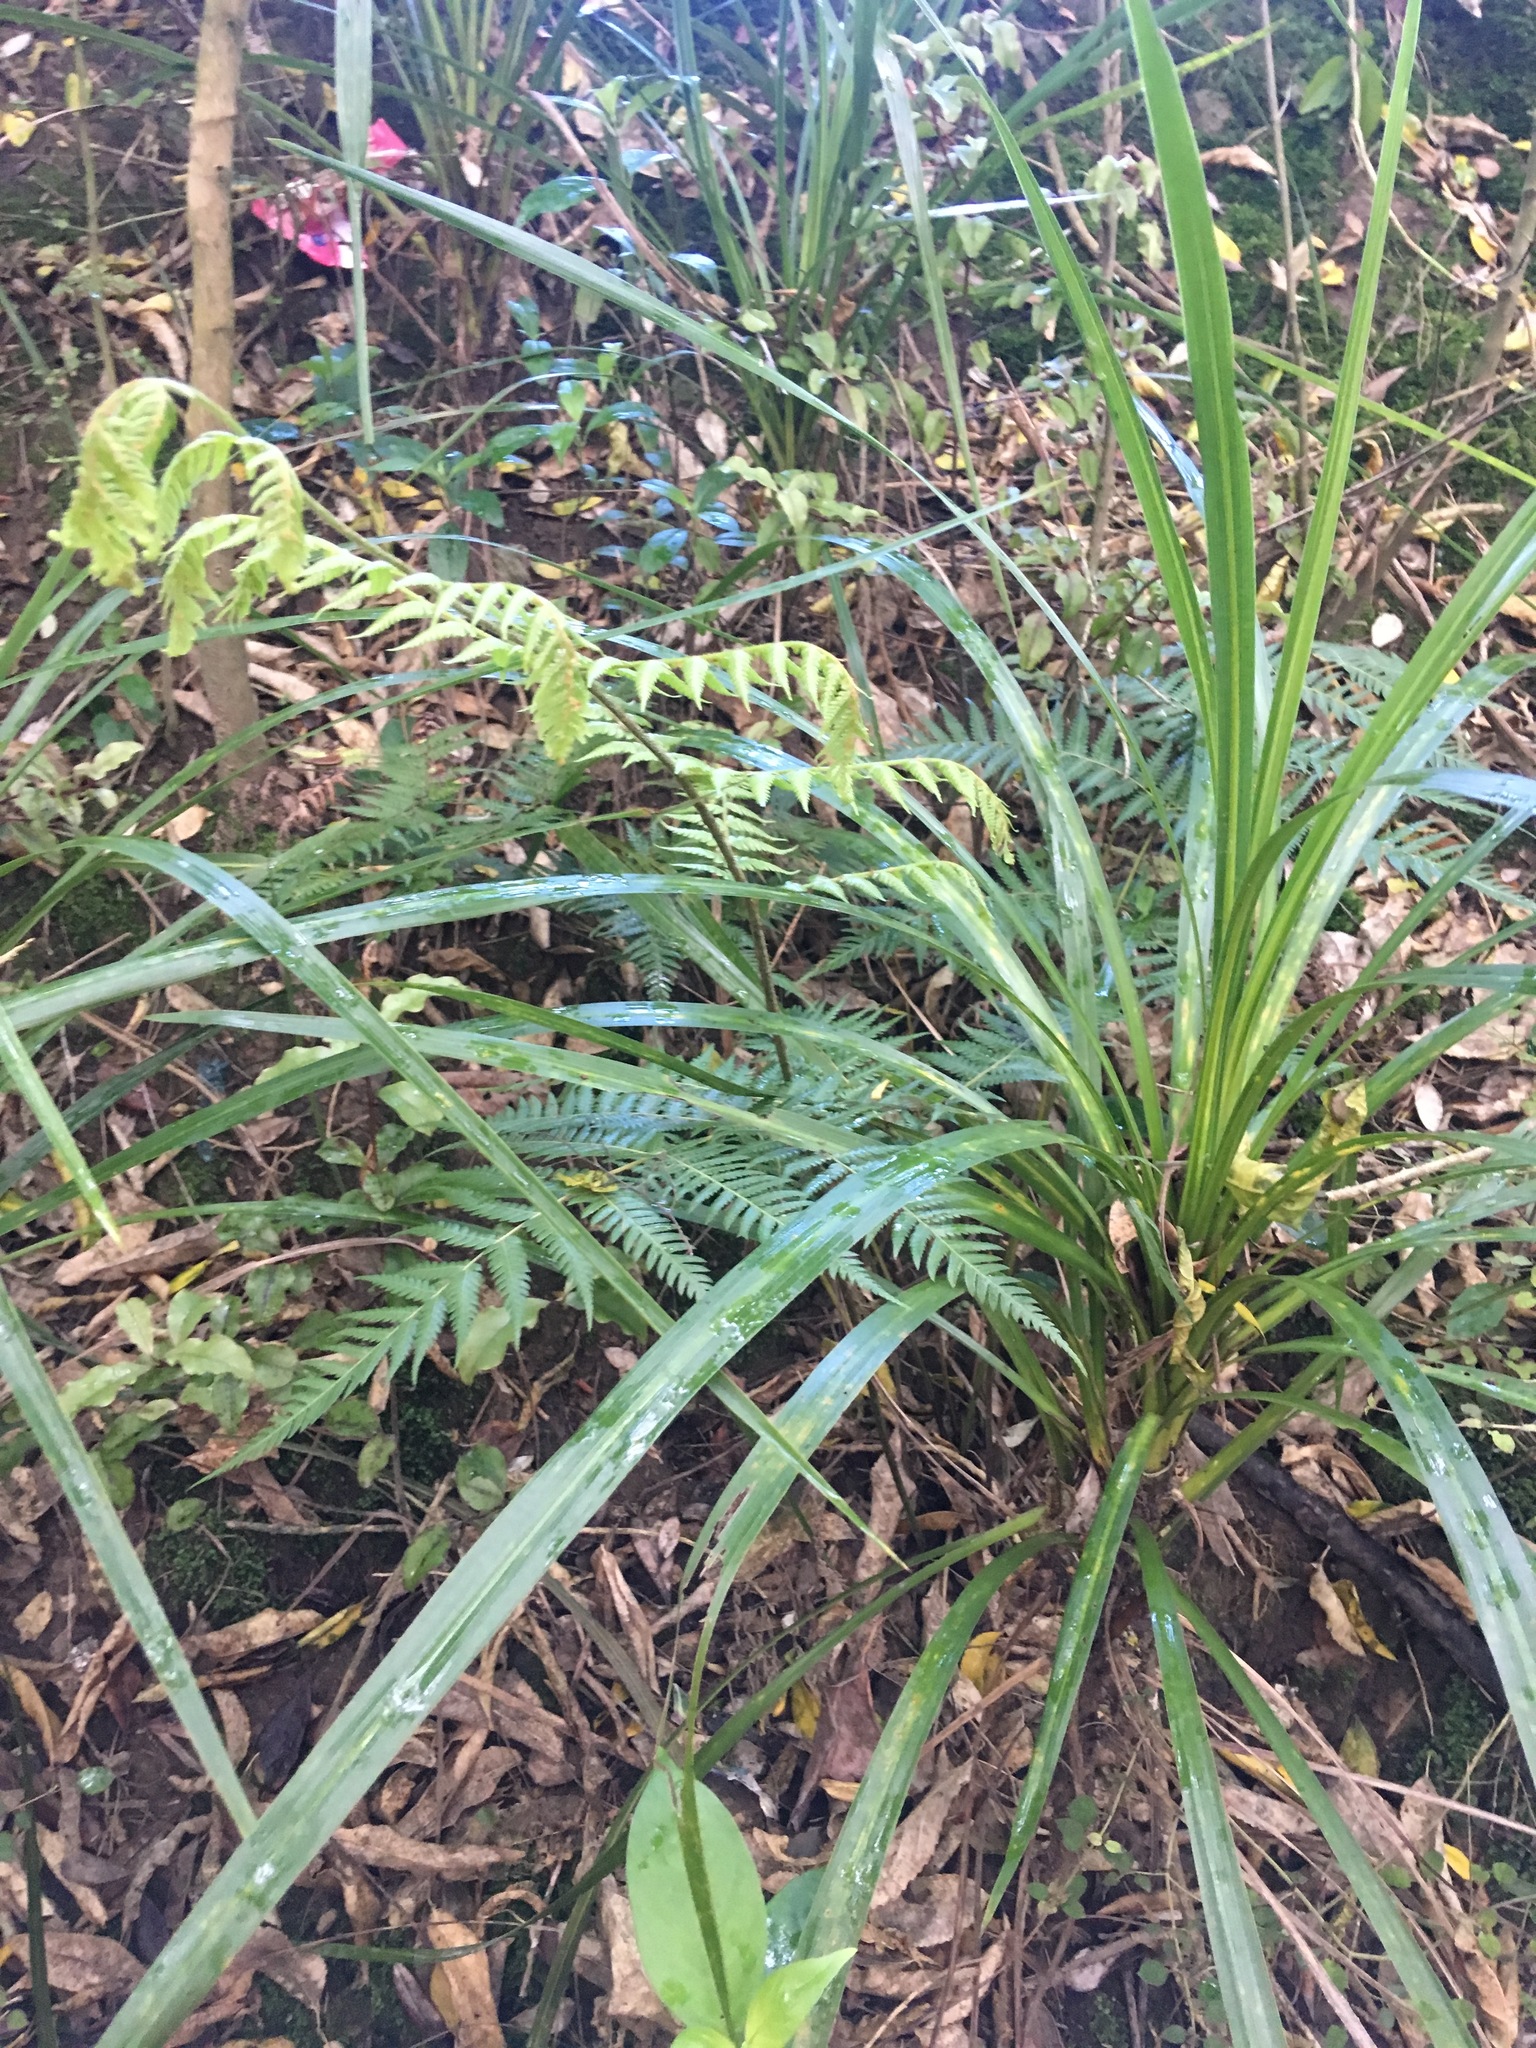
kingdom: Plantae
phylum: Tracheophyta
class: Polypodiopsida
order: Cyatheales
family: Cyatheaceae
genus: Alsophila
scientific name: Alsophila dealbata
